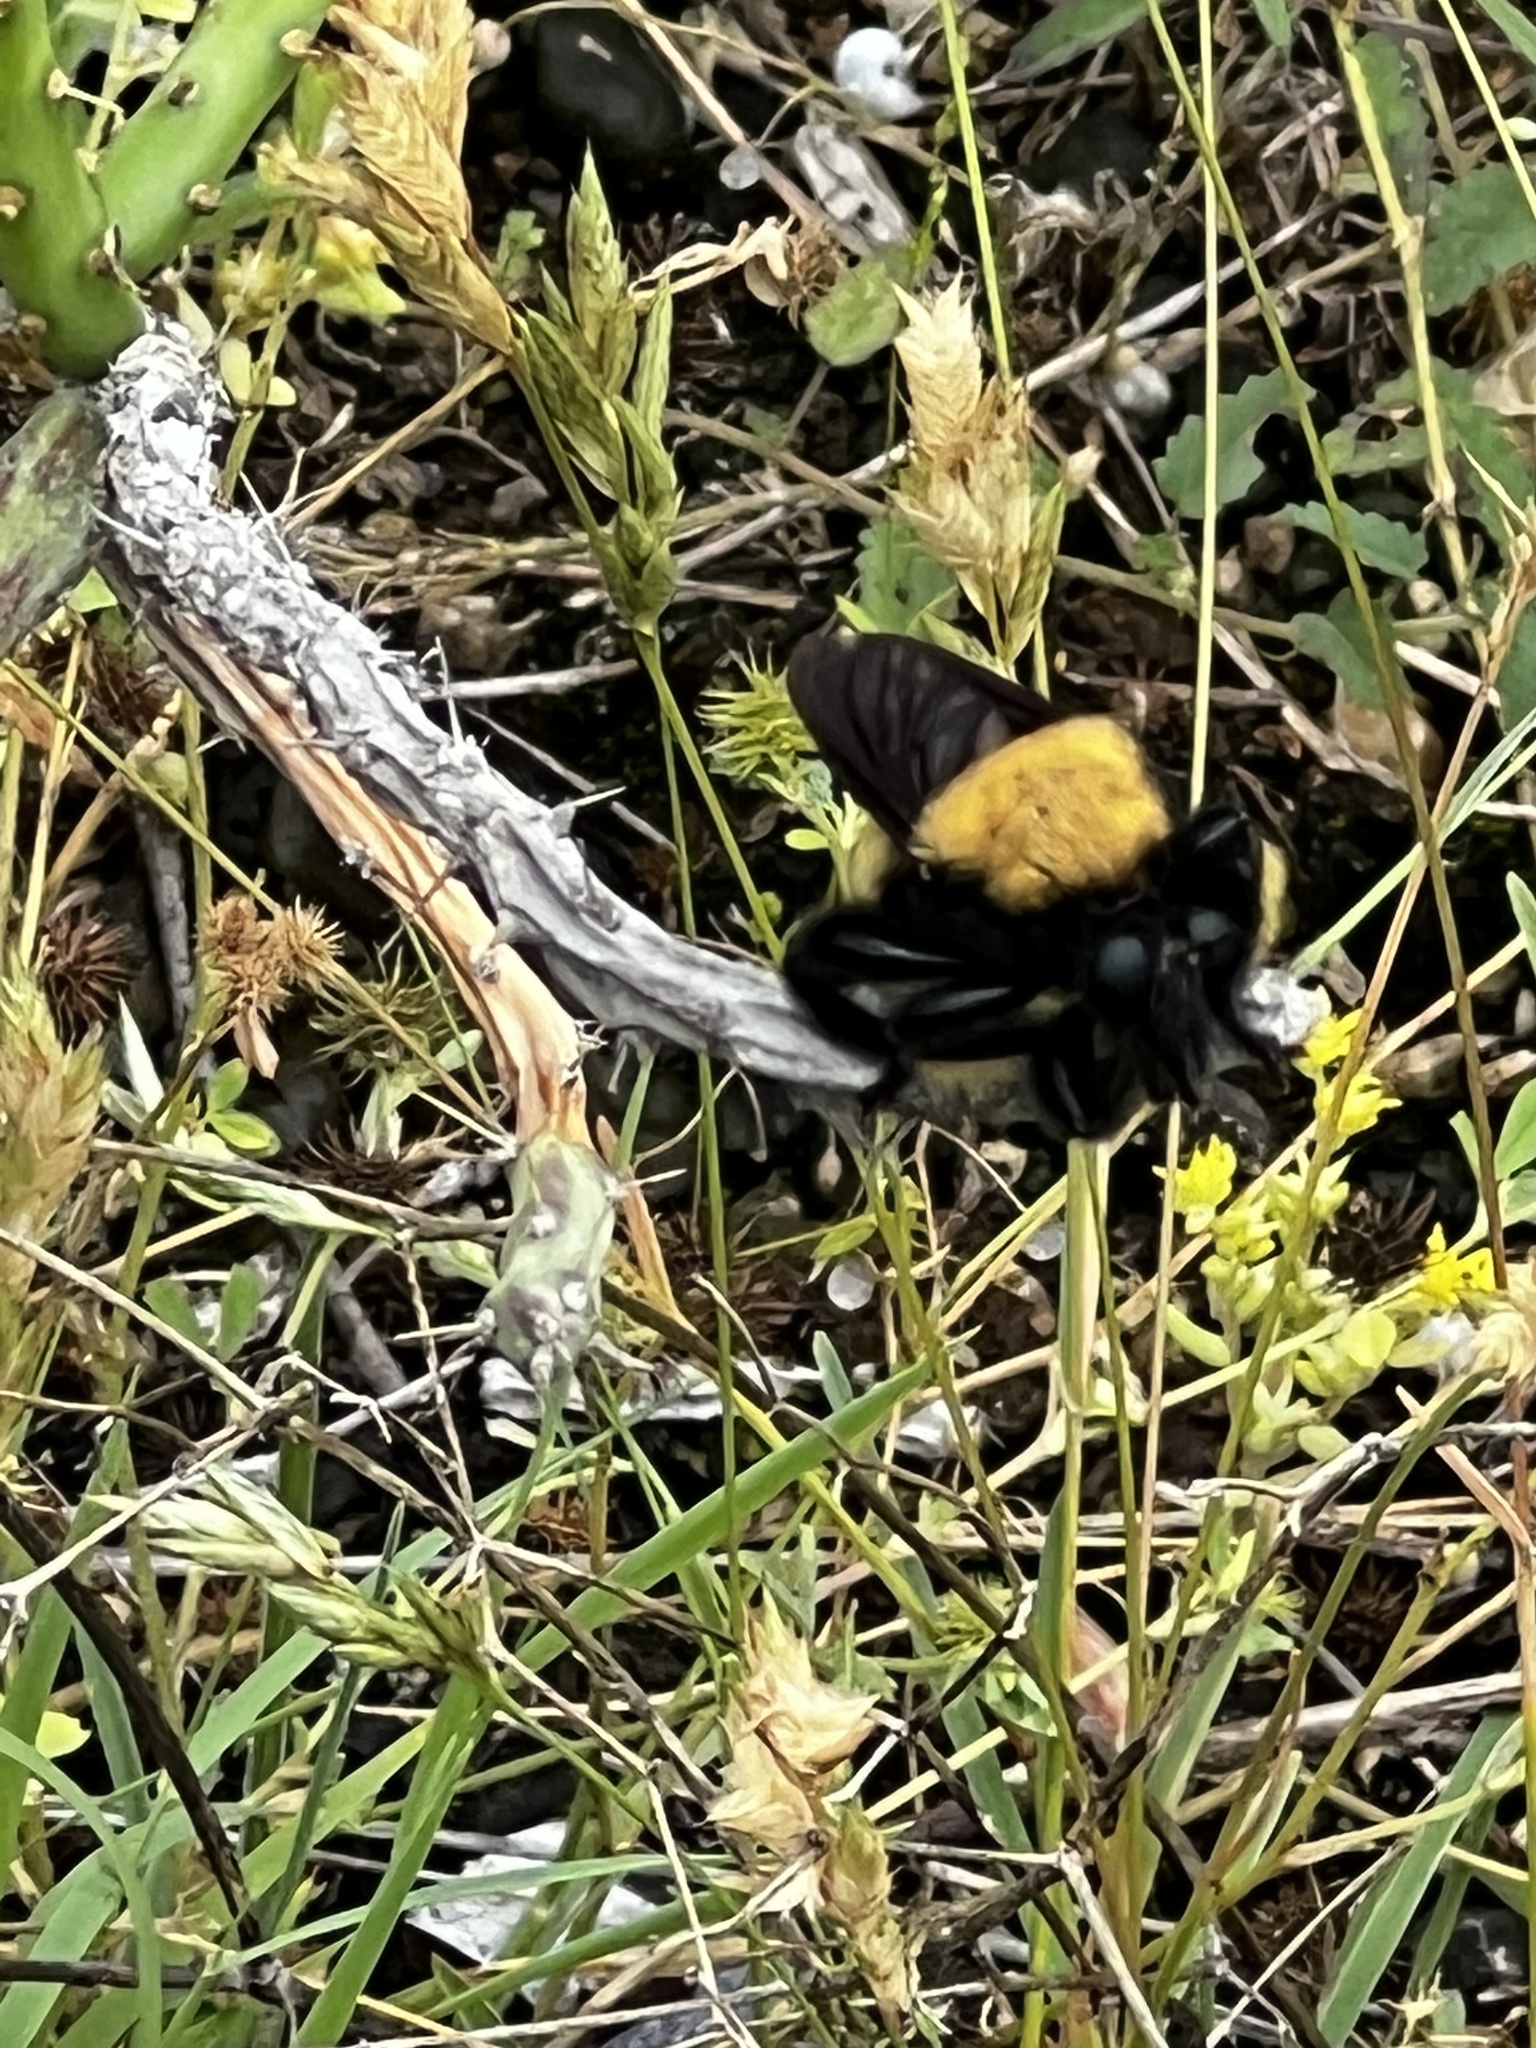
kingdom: Animalia
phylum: Arthropoda
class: Insecta
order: Diptera
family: Asilidae
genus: Laphria
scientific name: Laphria macquarti
